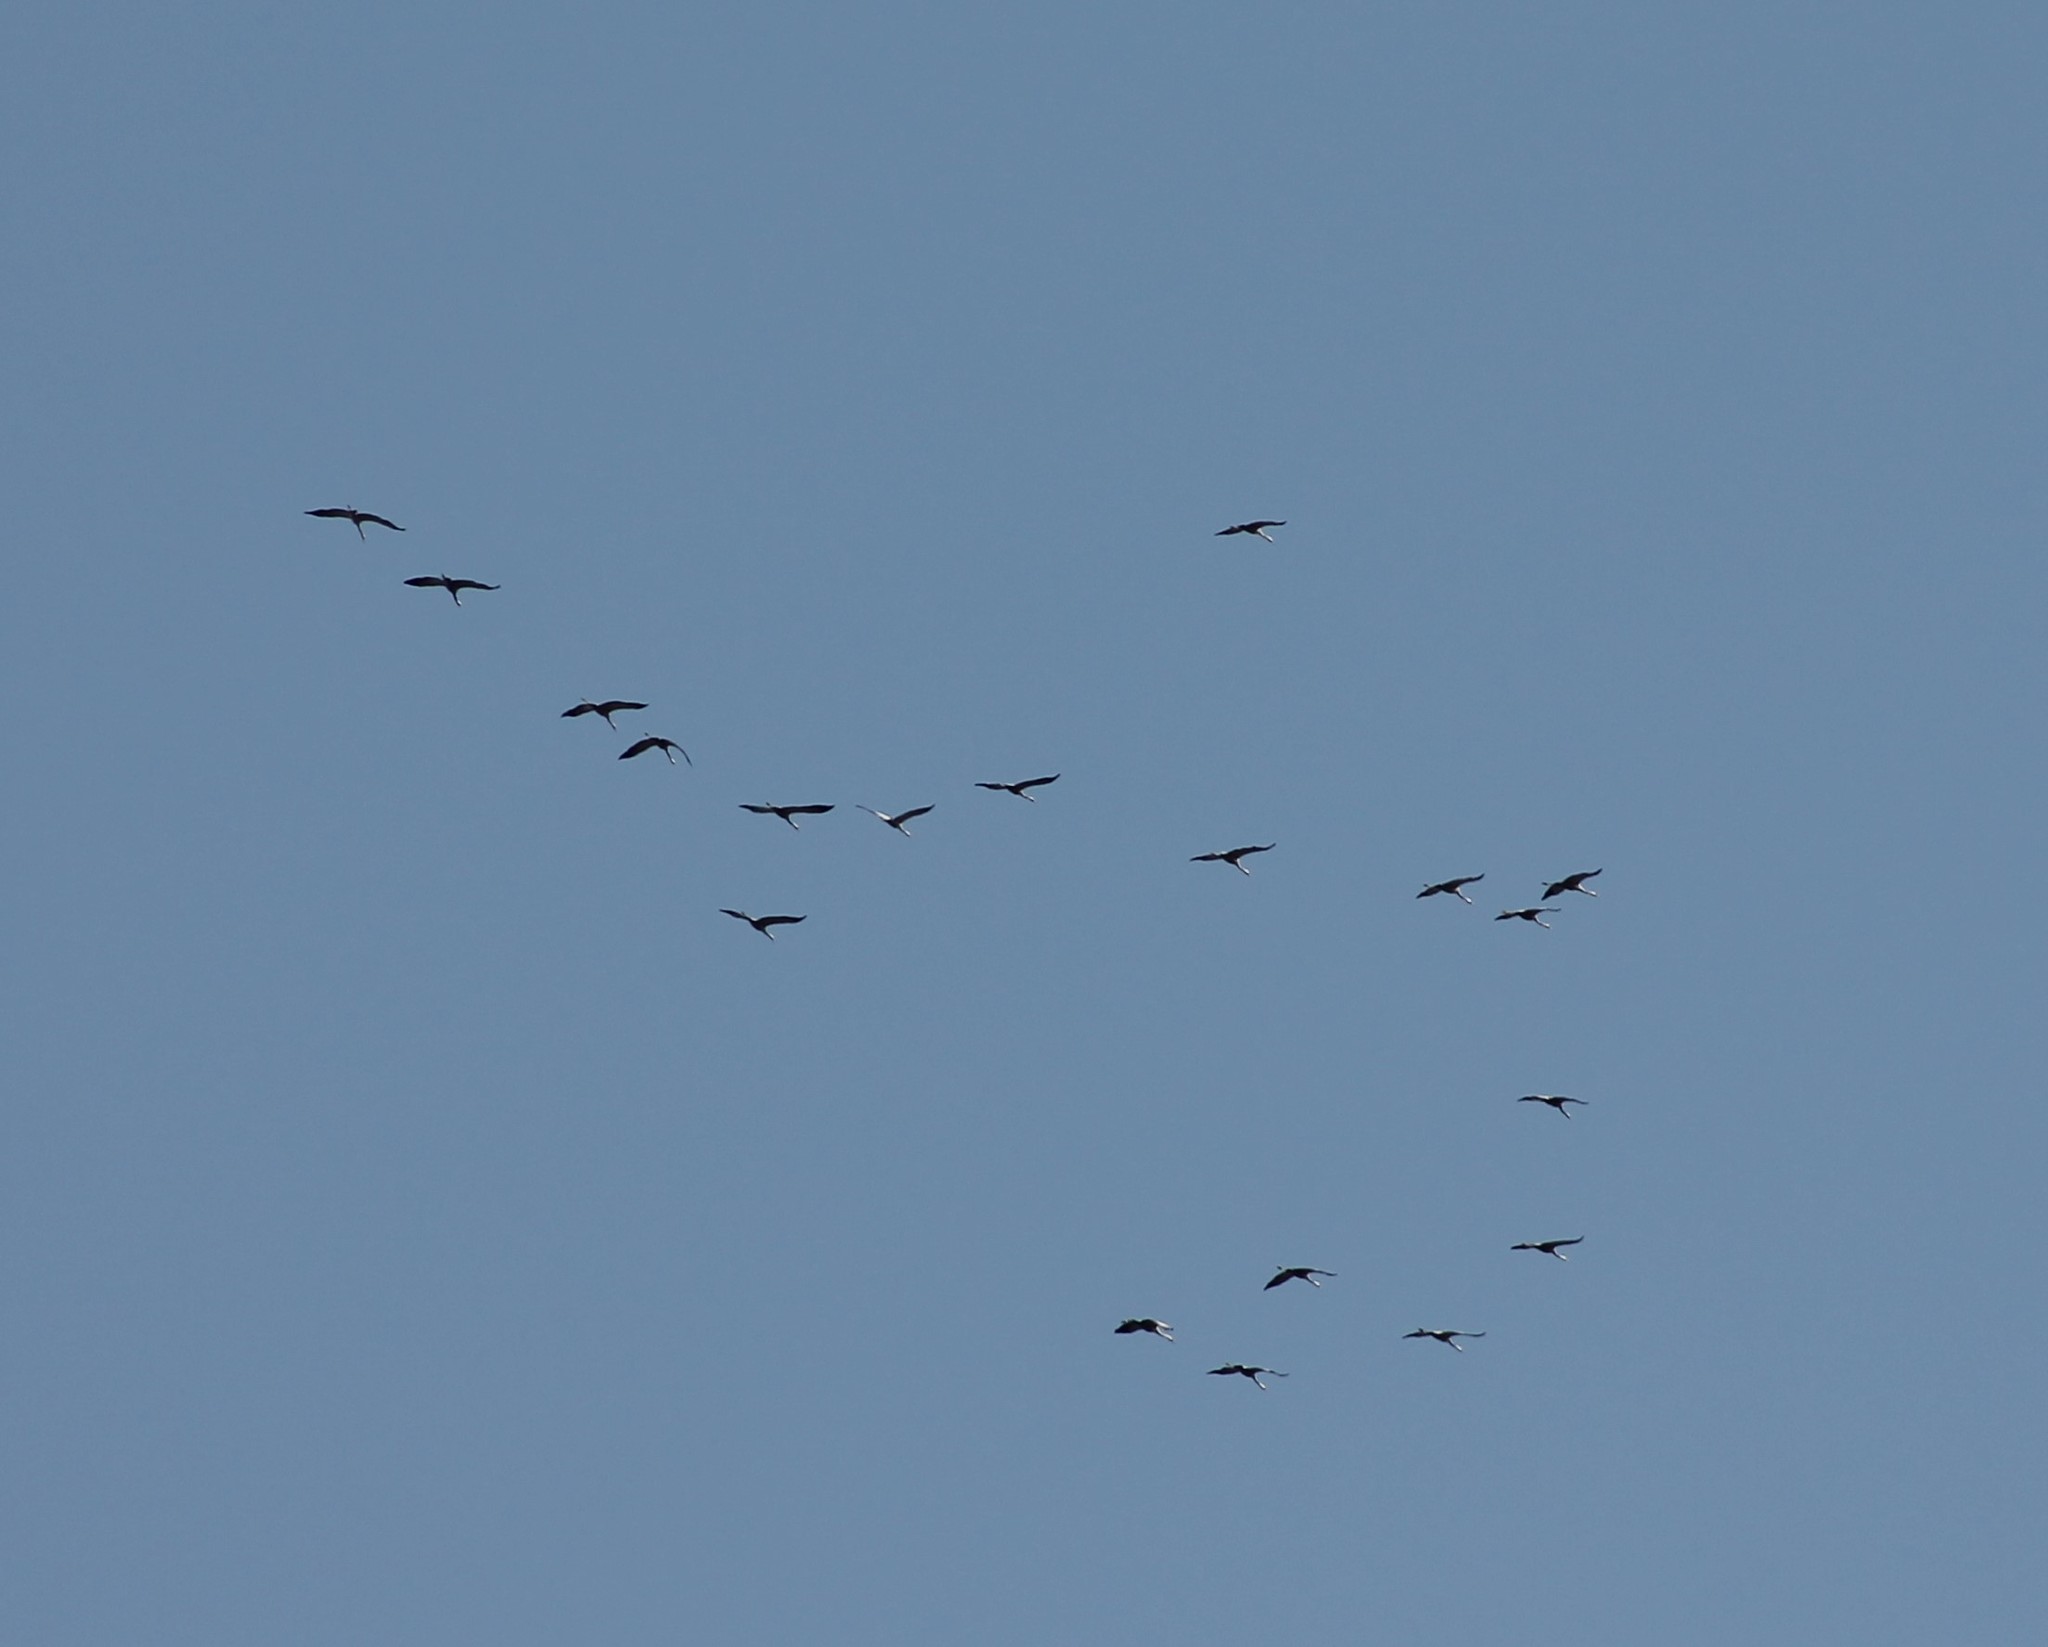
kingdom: Animalia
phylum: Chordata
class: Aves
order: Gruiformes
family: Gruidae
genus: Grus
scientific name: Grus grus
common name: Common crane
